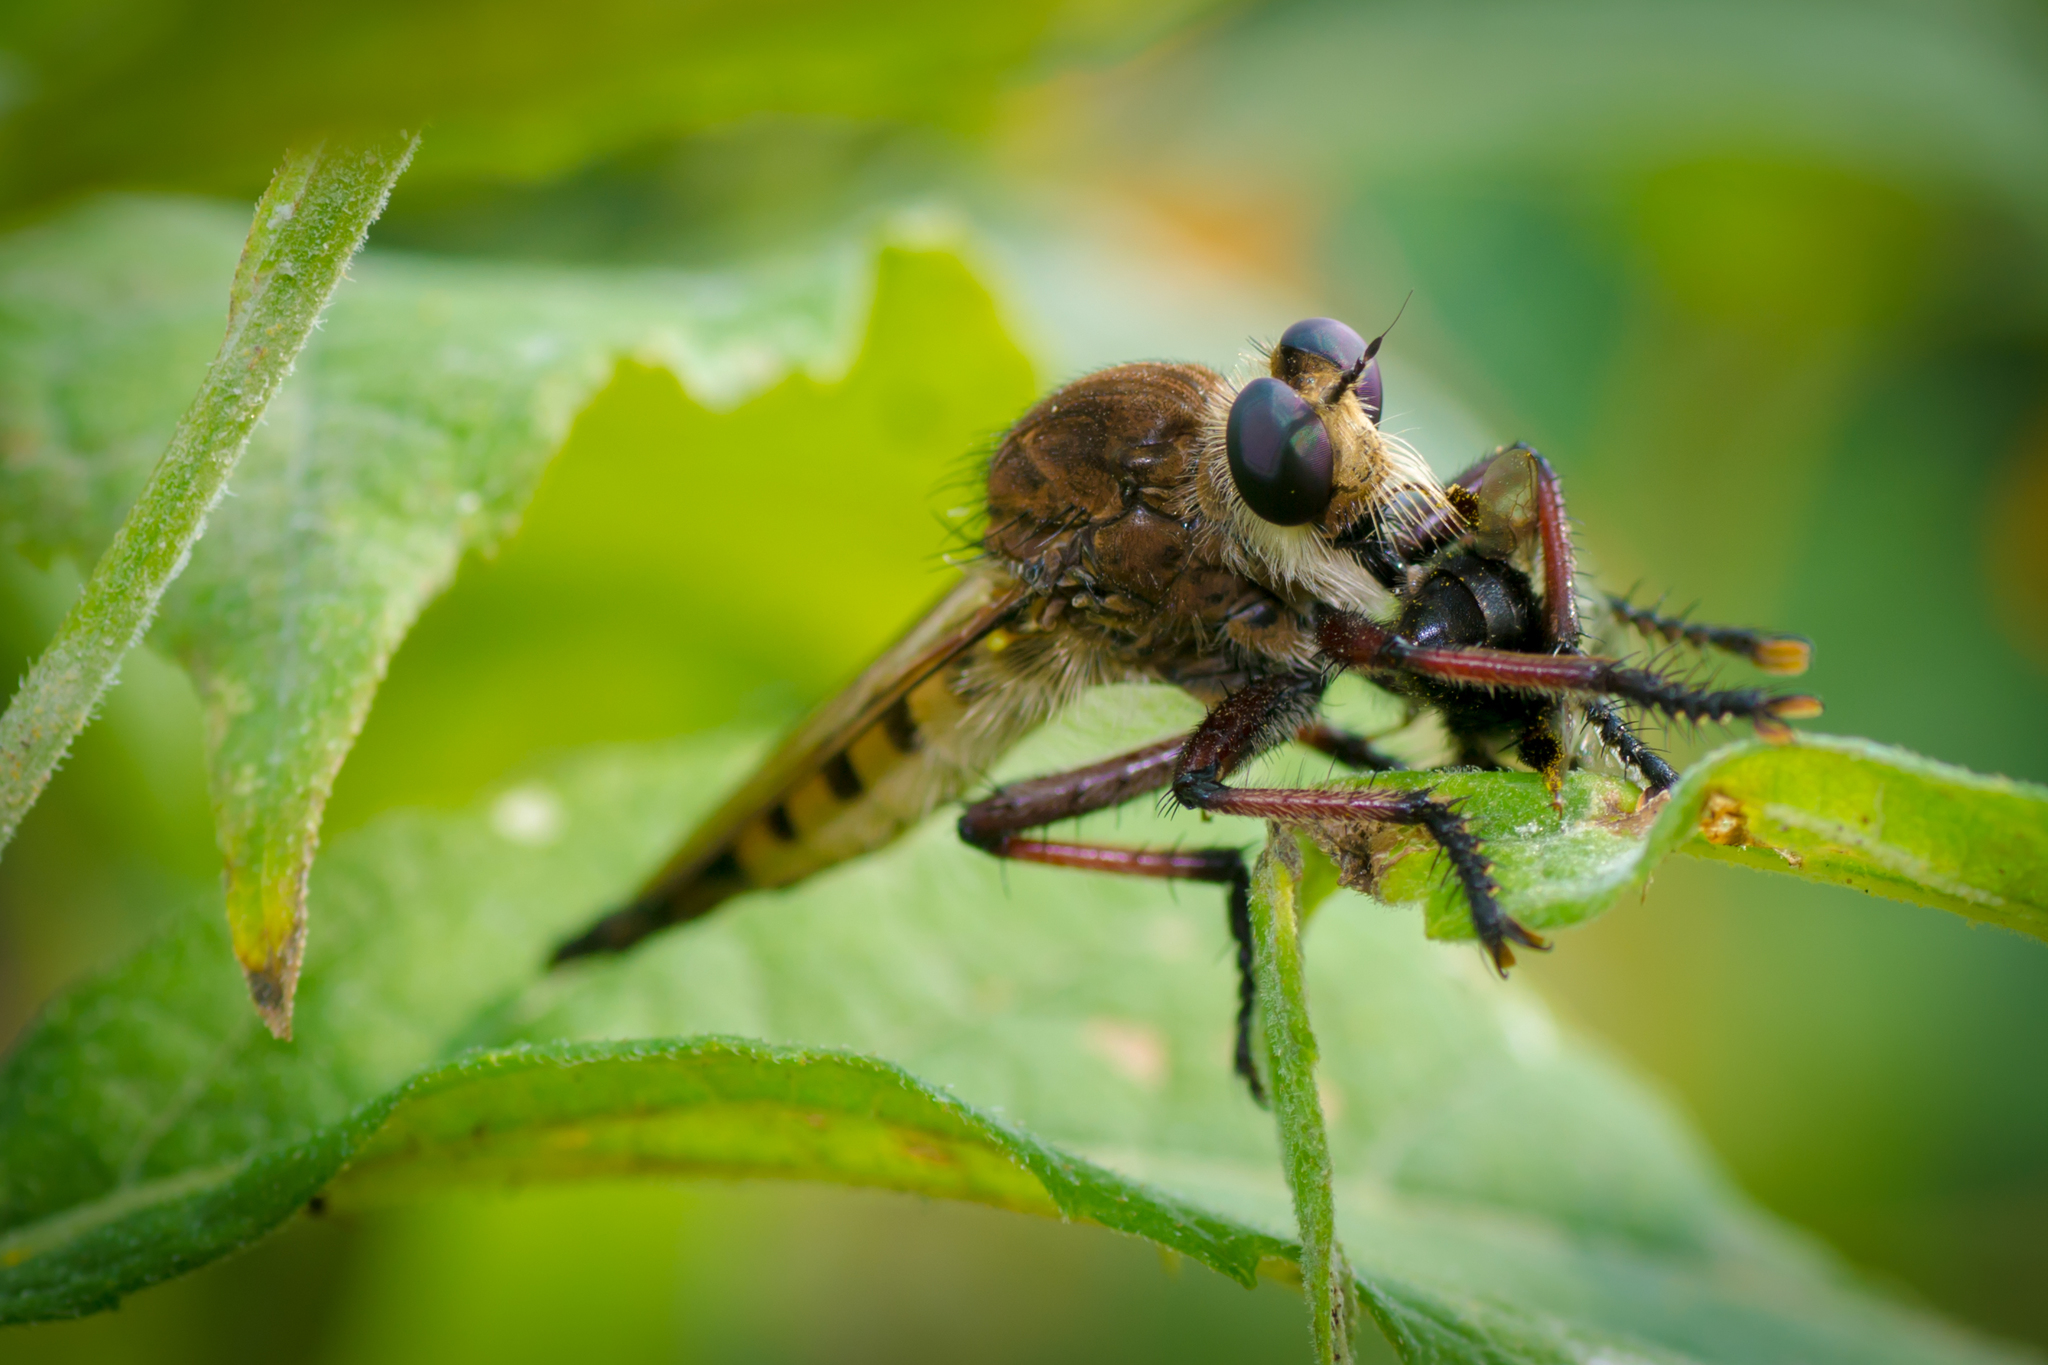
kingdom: Animalia
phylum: Arthropoda
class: Insecta
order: Diptera
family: Asilidae
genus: Promachus
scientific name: Promachus hinei
